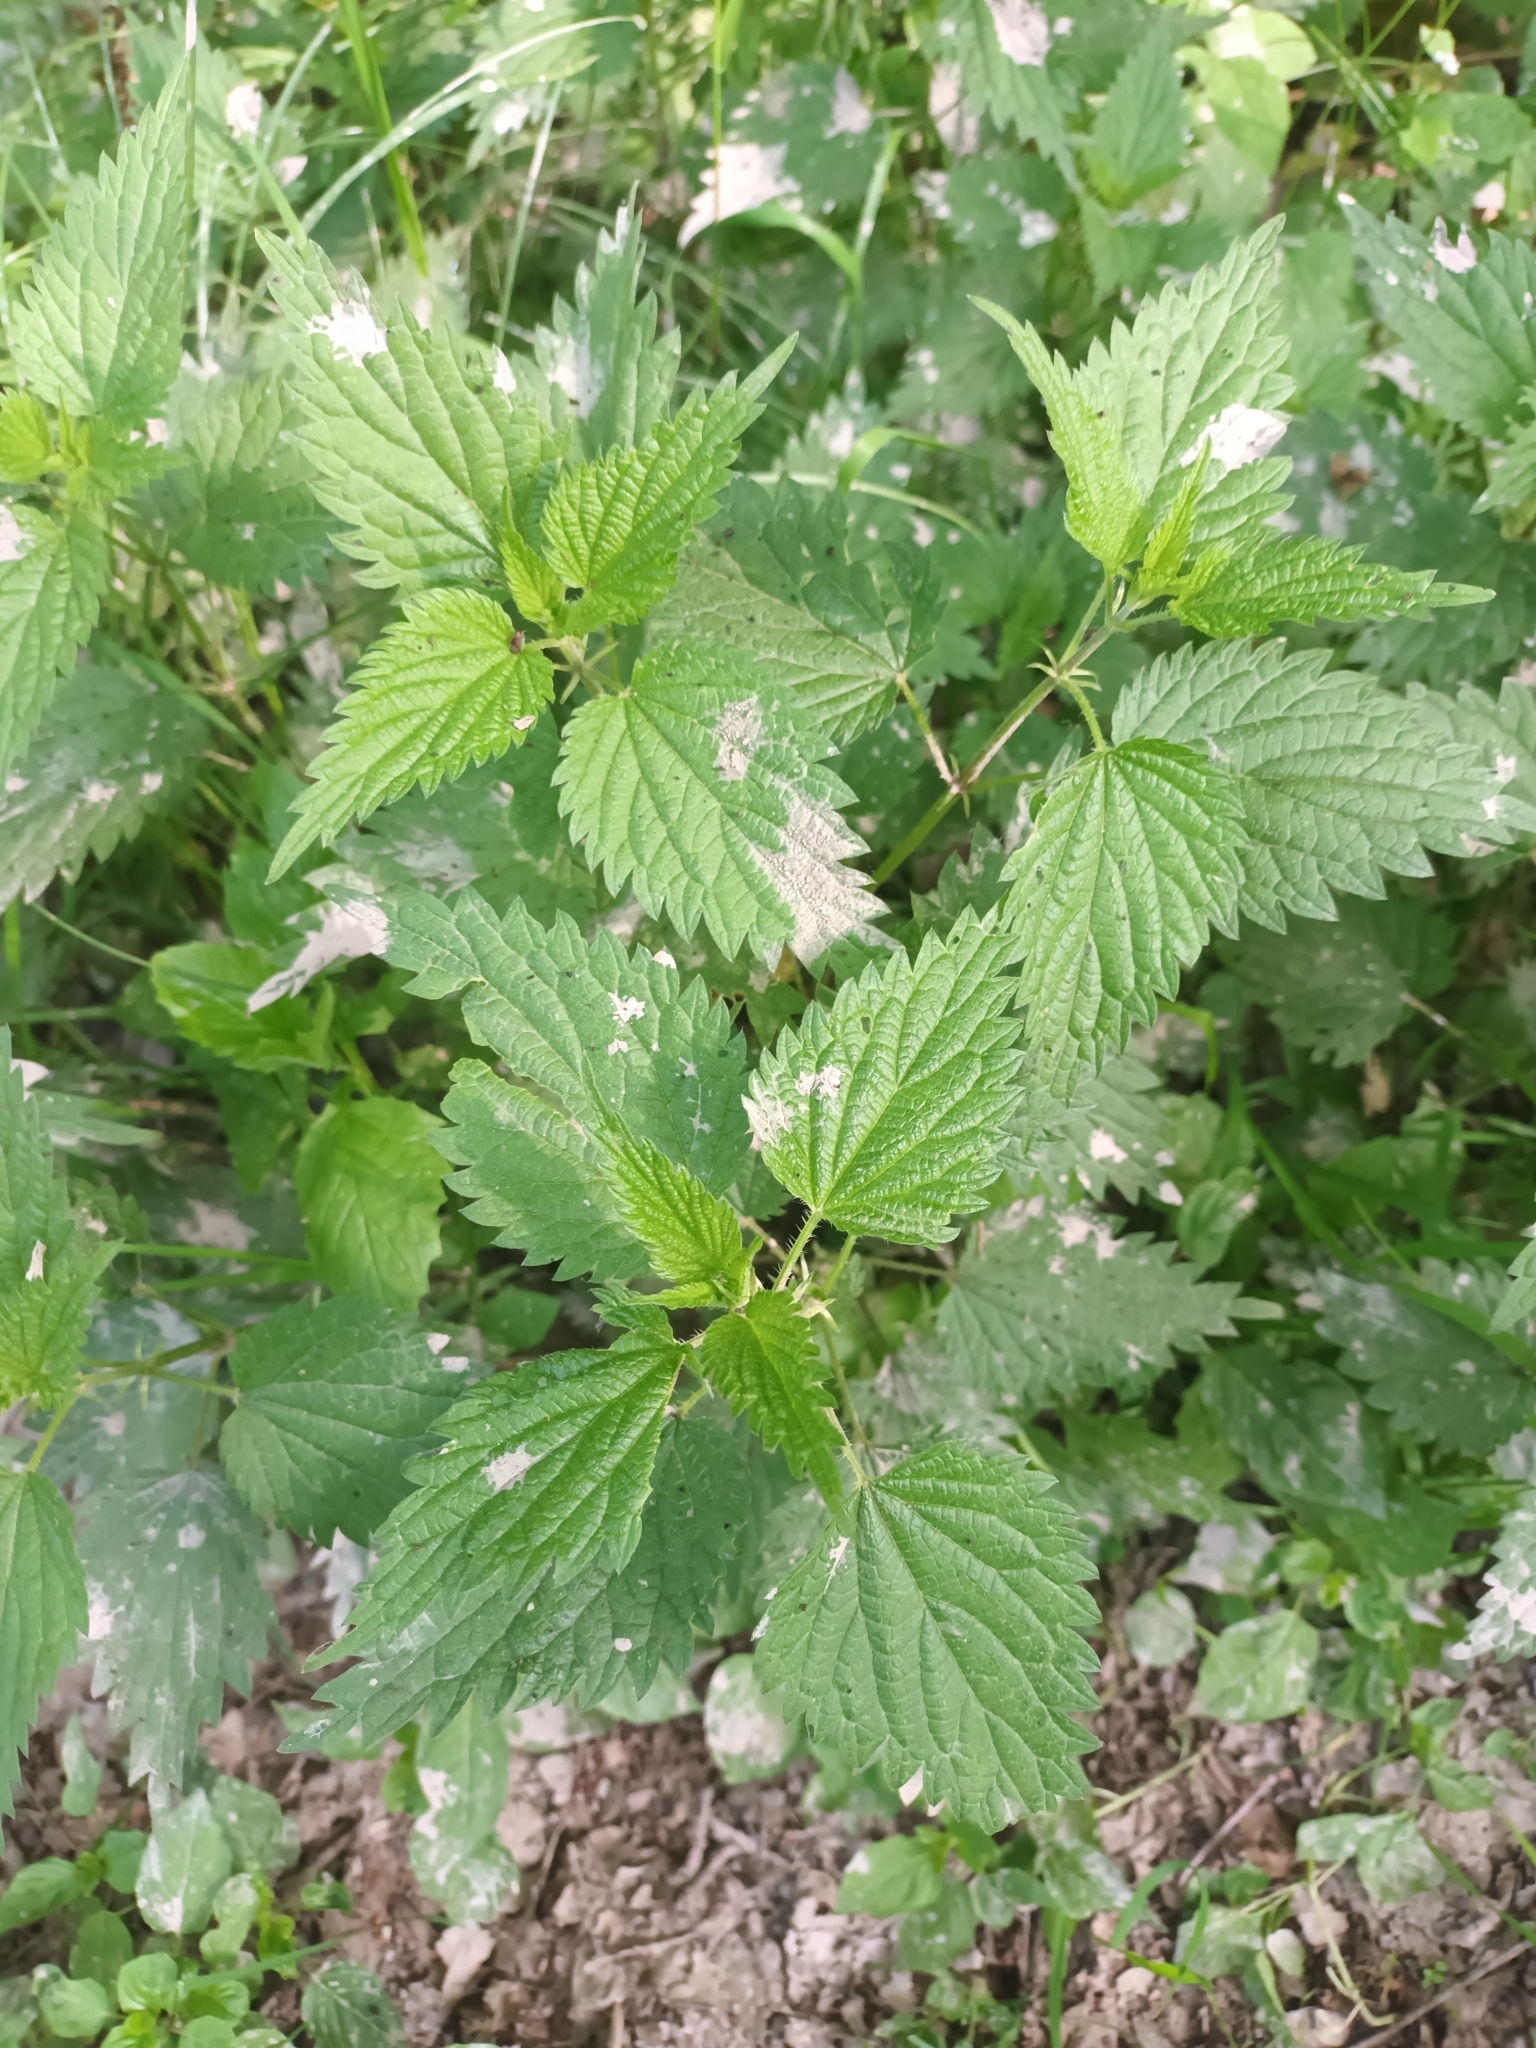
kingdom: Plantae
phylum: Tracheophyta
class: Magnoliopsida
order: Rosales
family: Urticaceae
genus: Urtica
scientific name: Urtica dioica
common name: Common nettle
